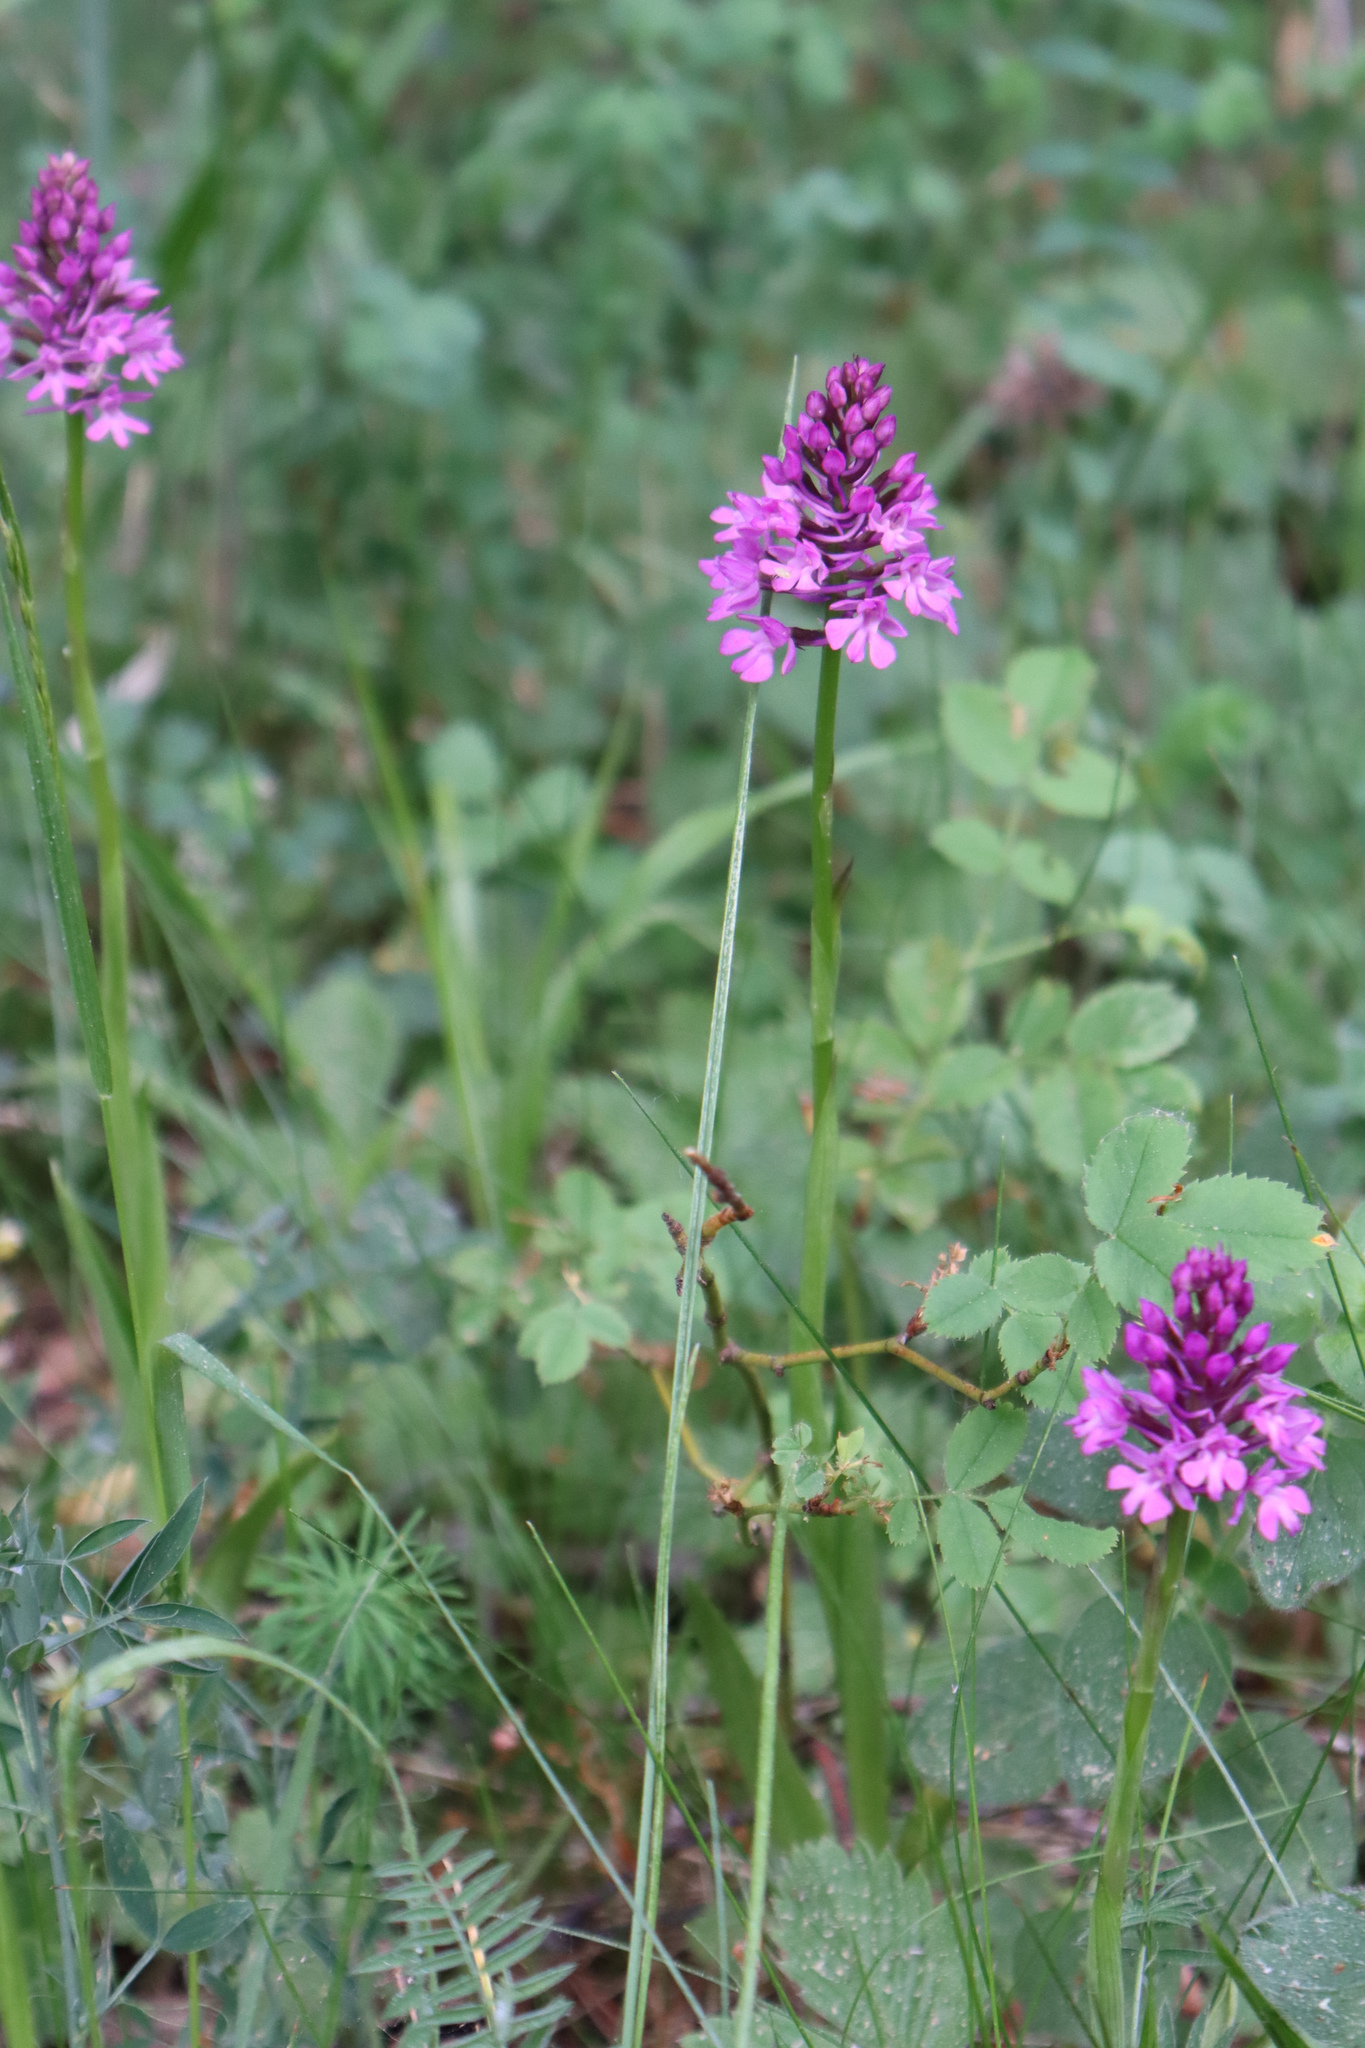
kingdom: Plantae
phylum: Tracheophyta
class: Liliopsida
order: Asparagales
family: Orchidaceae
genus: Anacamptis
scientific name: Anacamptis pyramidalis
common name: Pyramidal orchid
